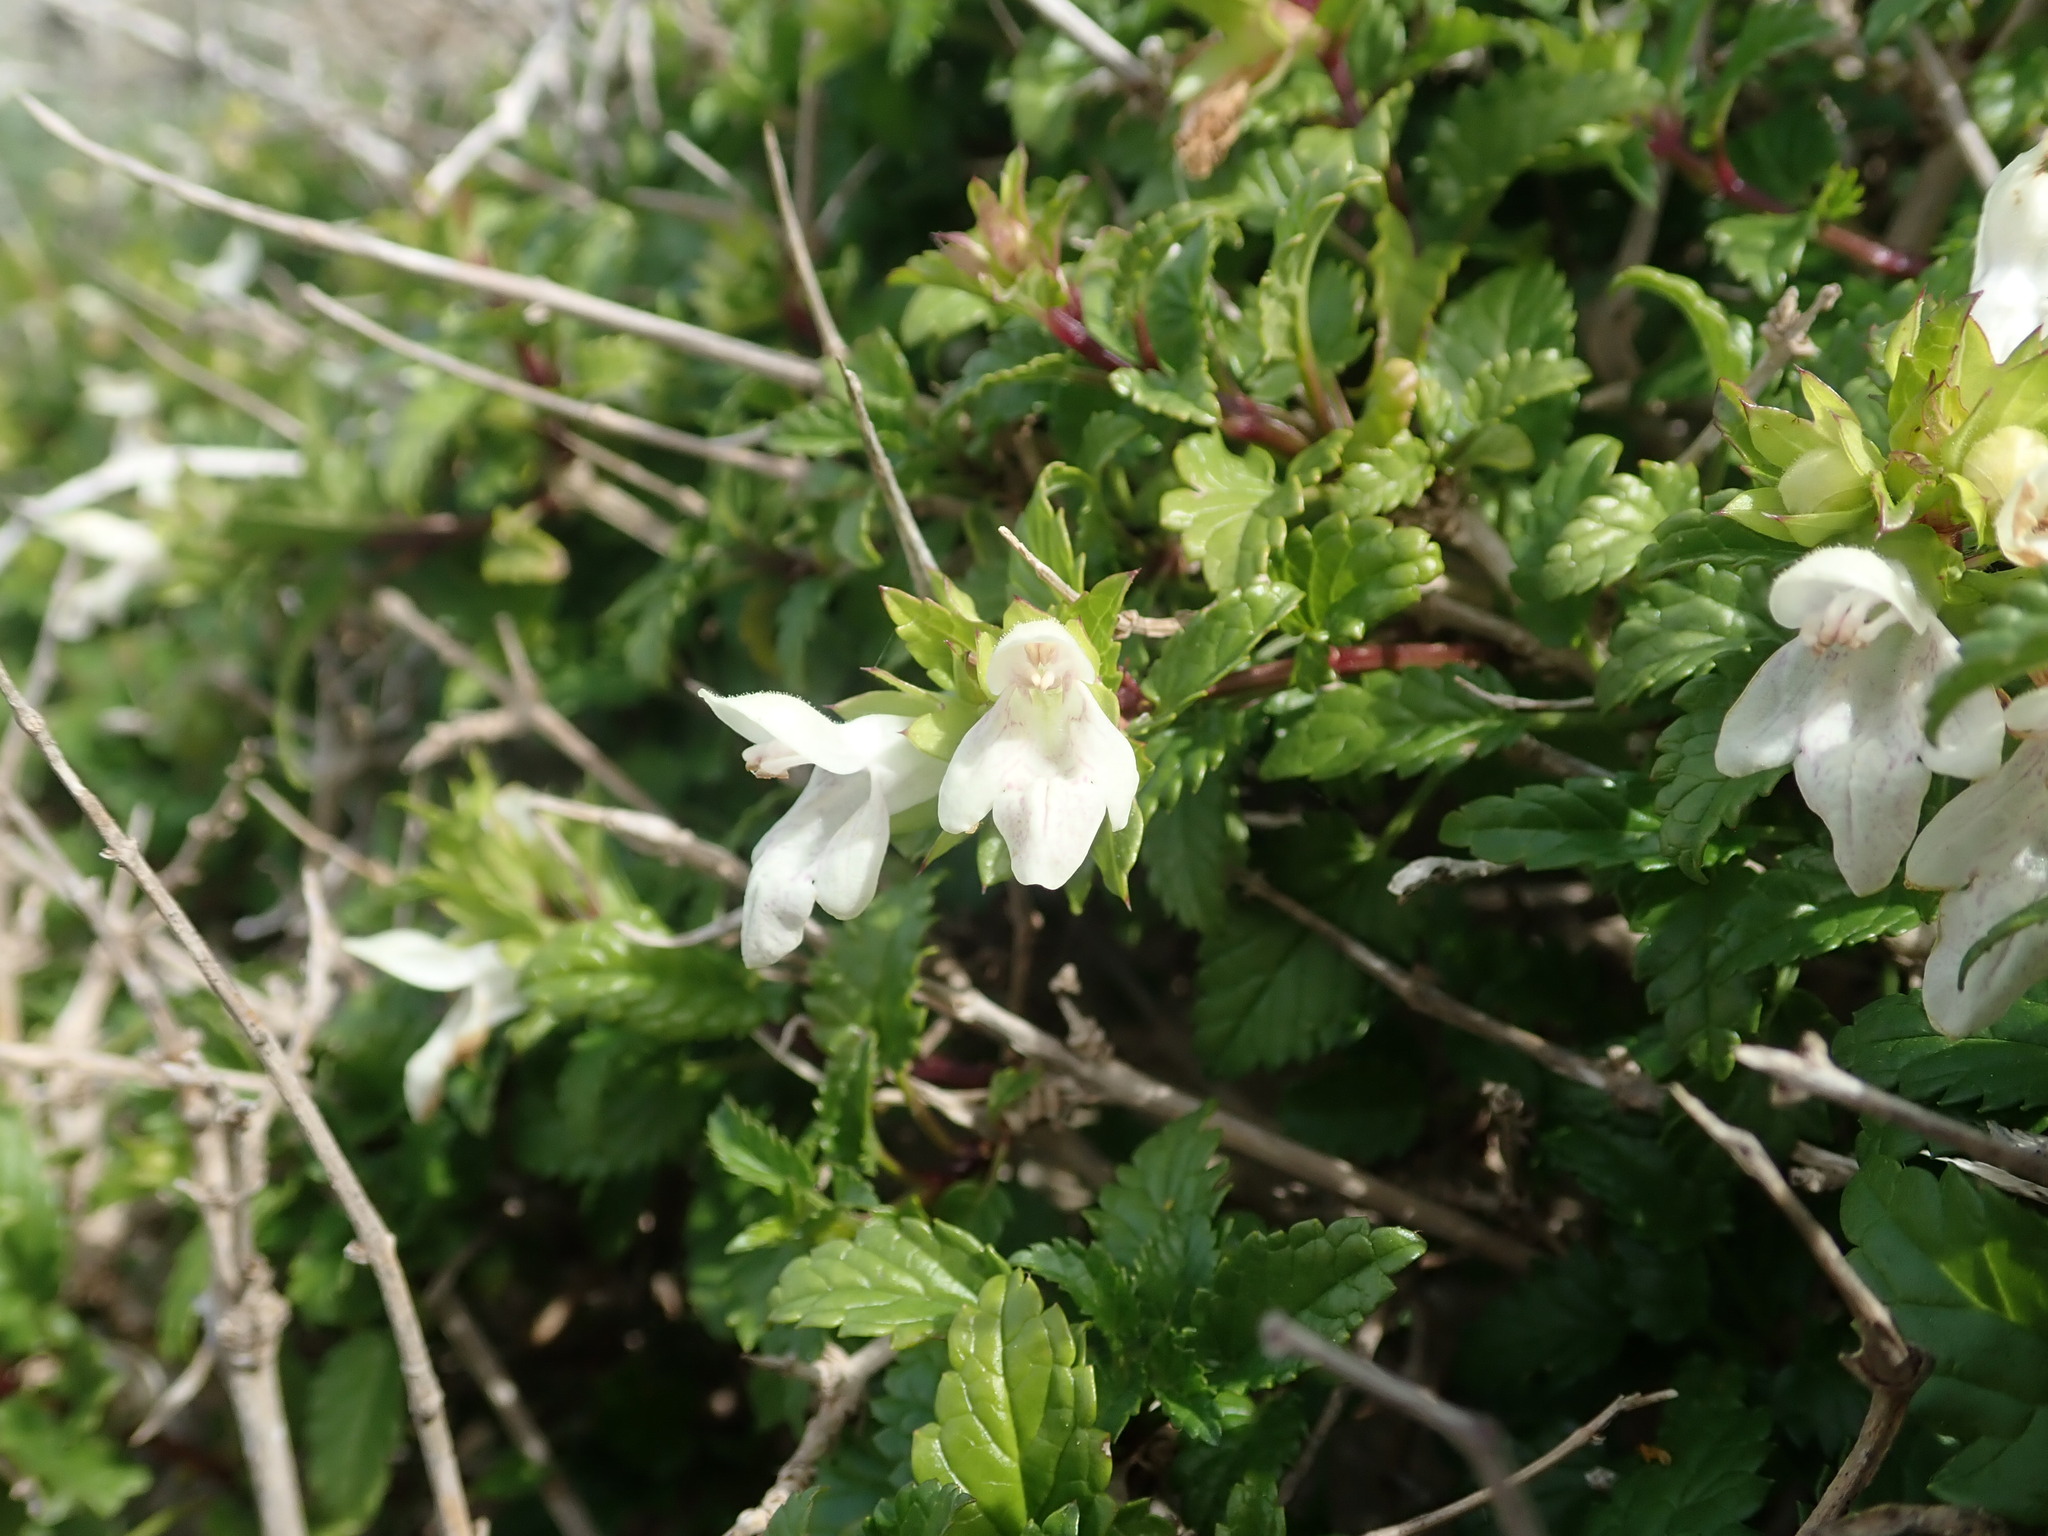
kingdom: Plantae
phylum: Tracheophyta
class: Magnoliopsida
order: Lamiales
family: Lamiaceae
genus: Prasium
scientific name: Prasium majus
